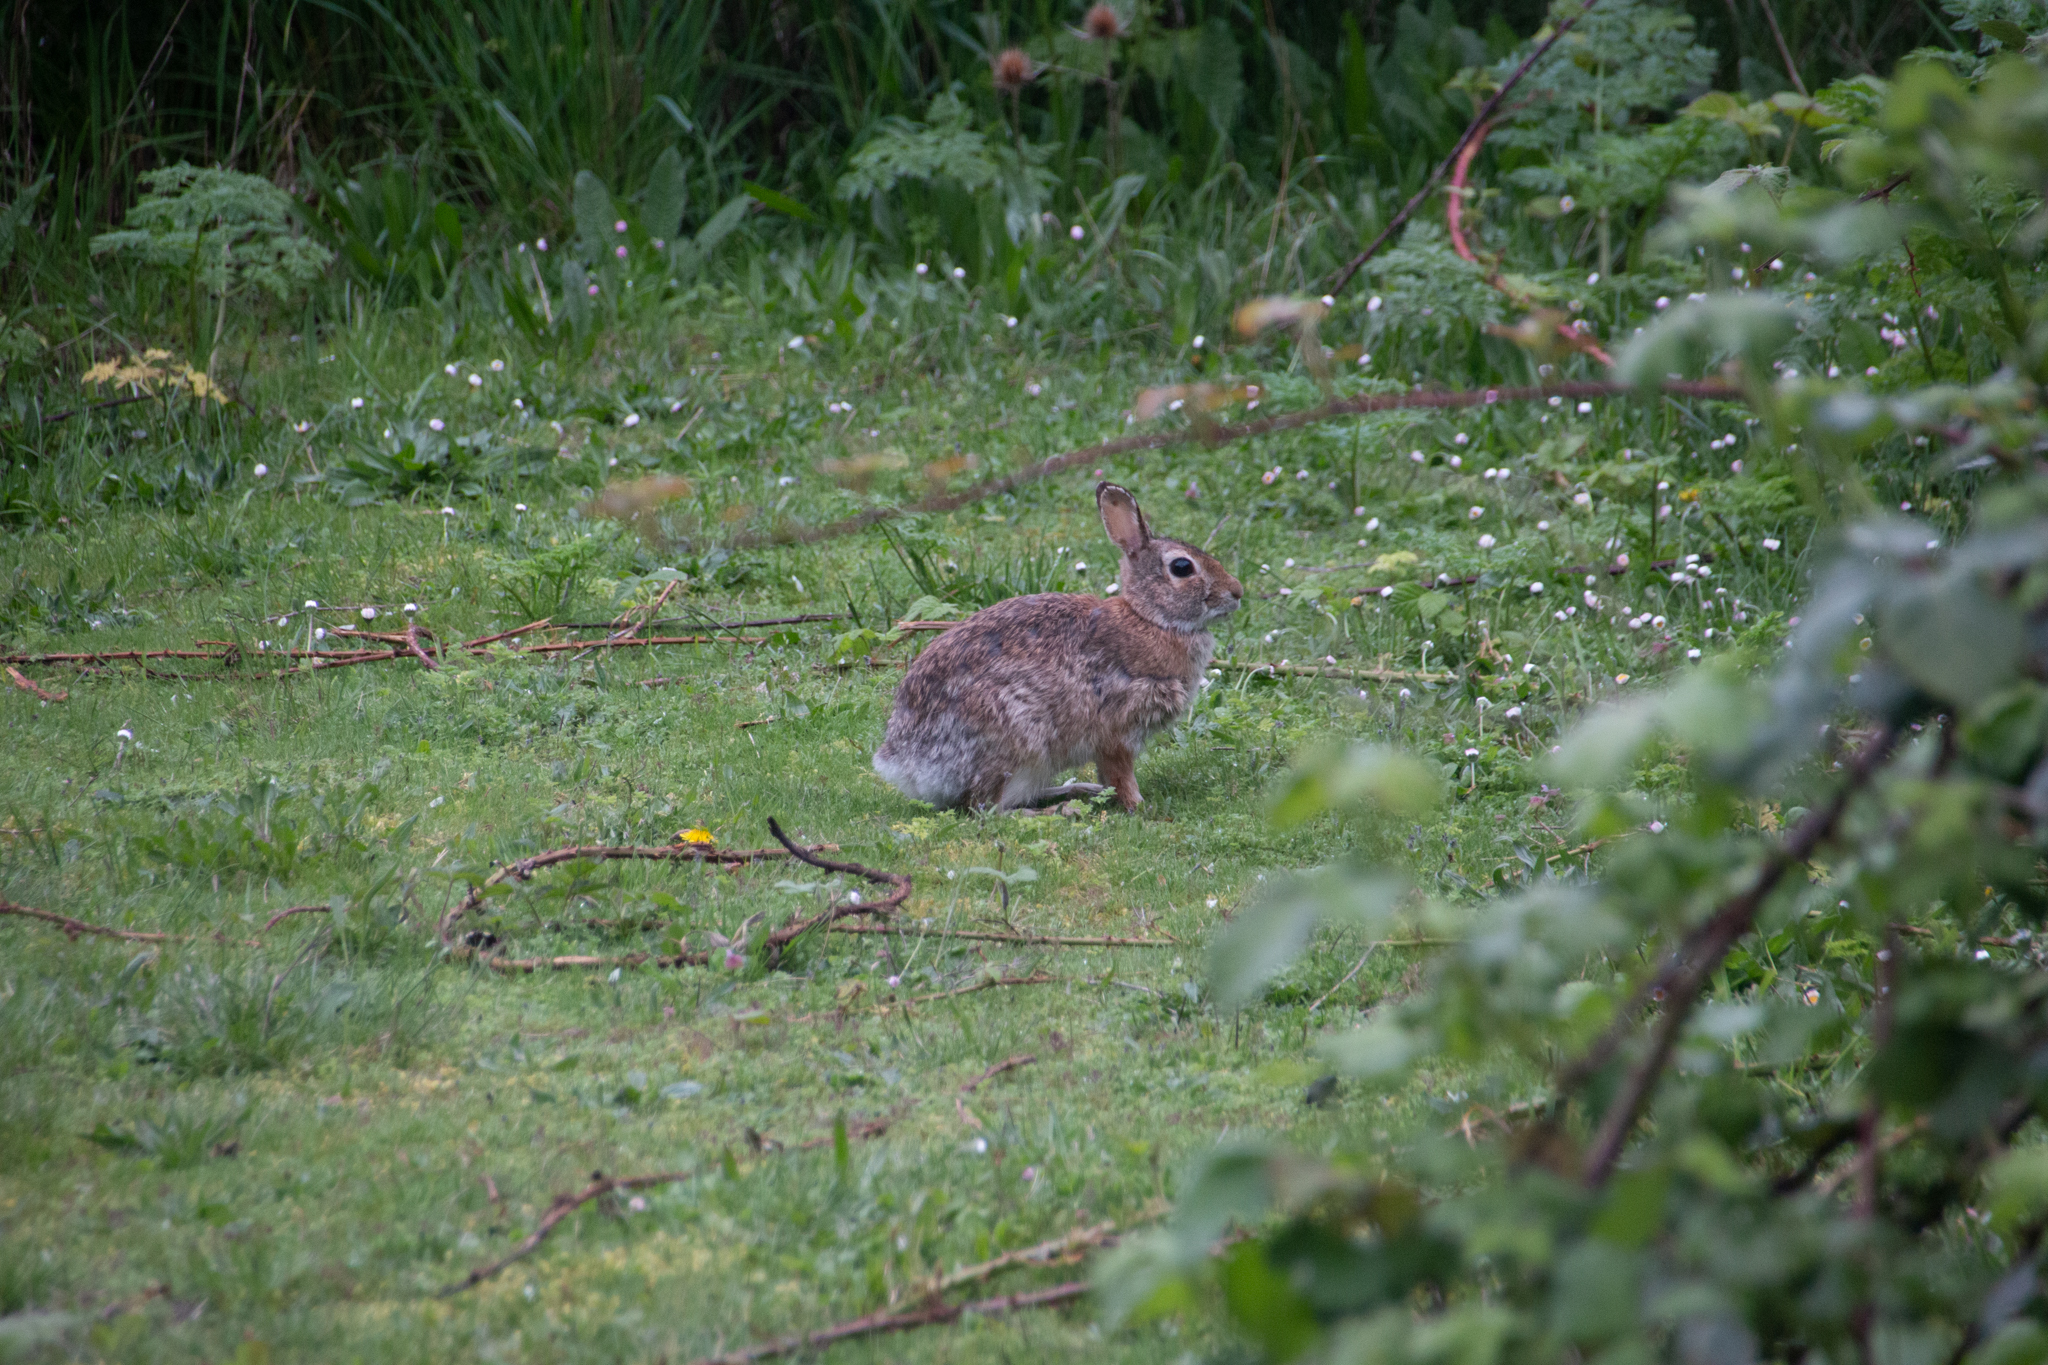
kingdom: Animalia
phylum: Chordata
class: Mammalia
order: Lagomorpha
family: Leporidae
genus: Sylvilagus
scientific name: Sylvilagus floridanus
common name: Eastern cottontail
